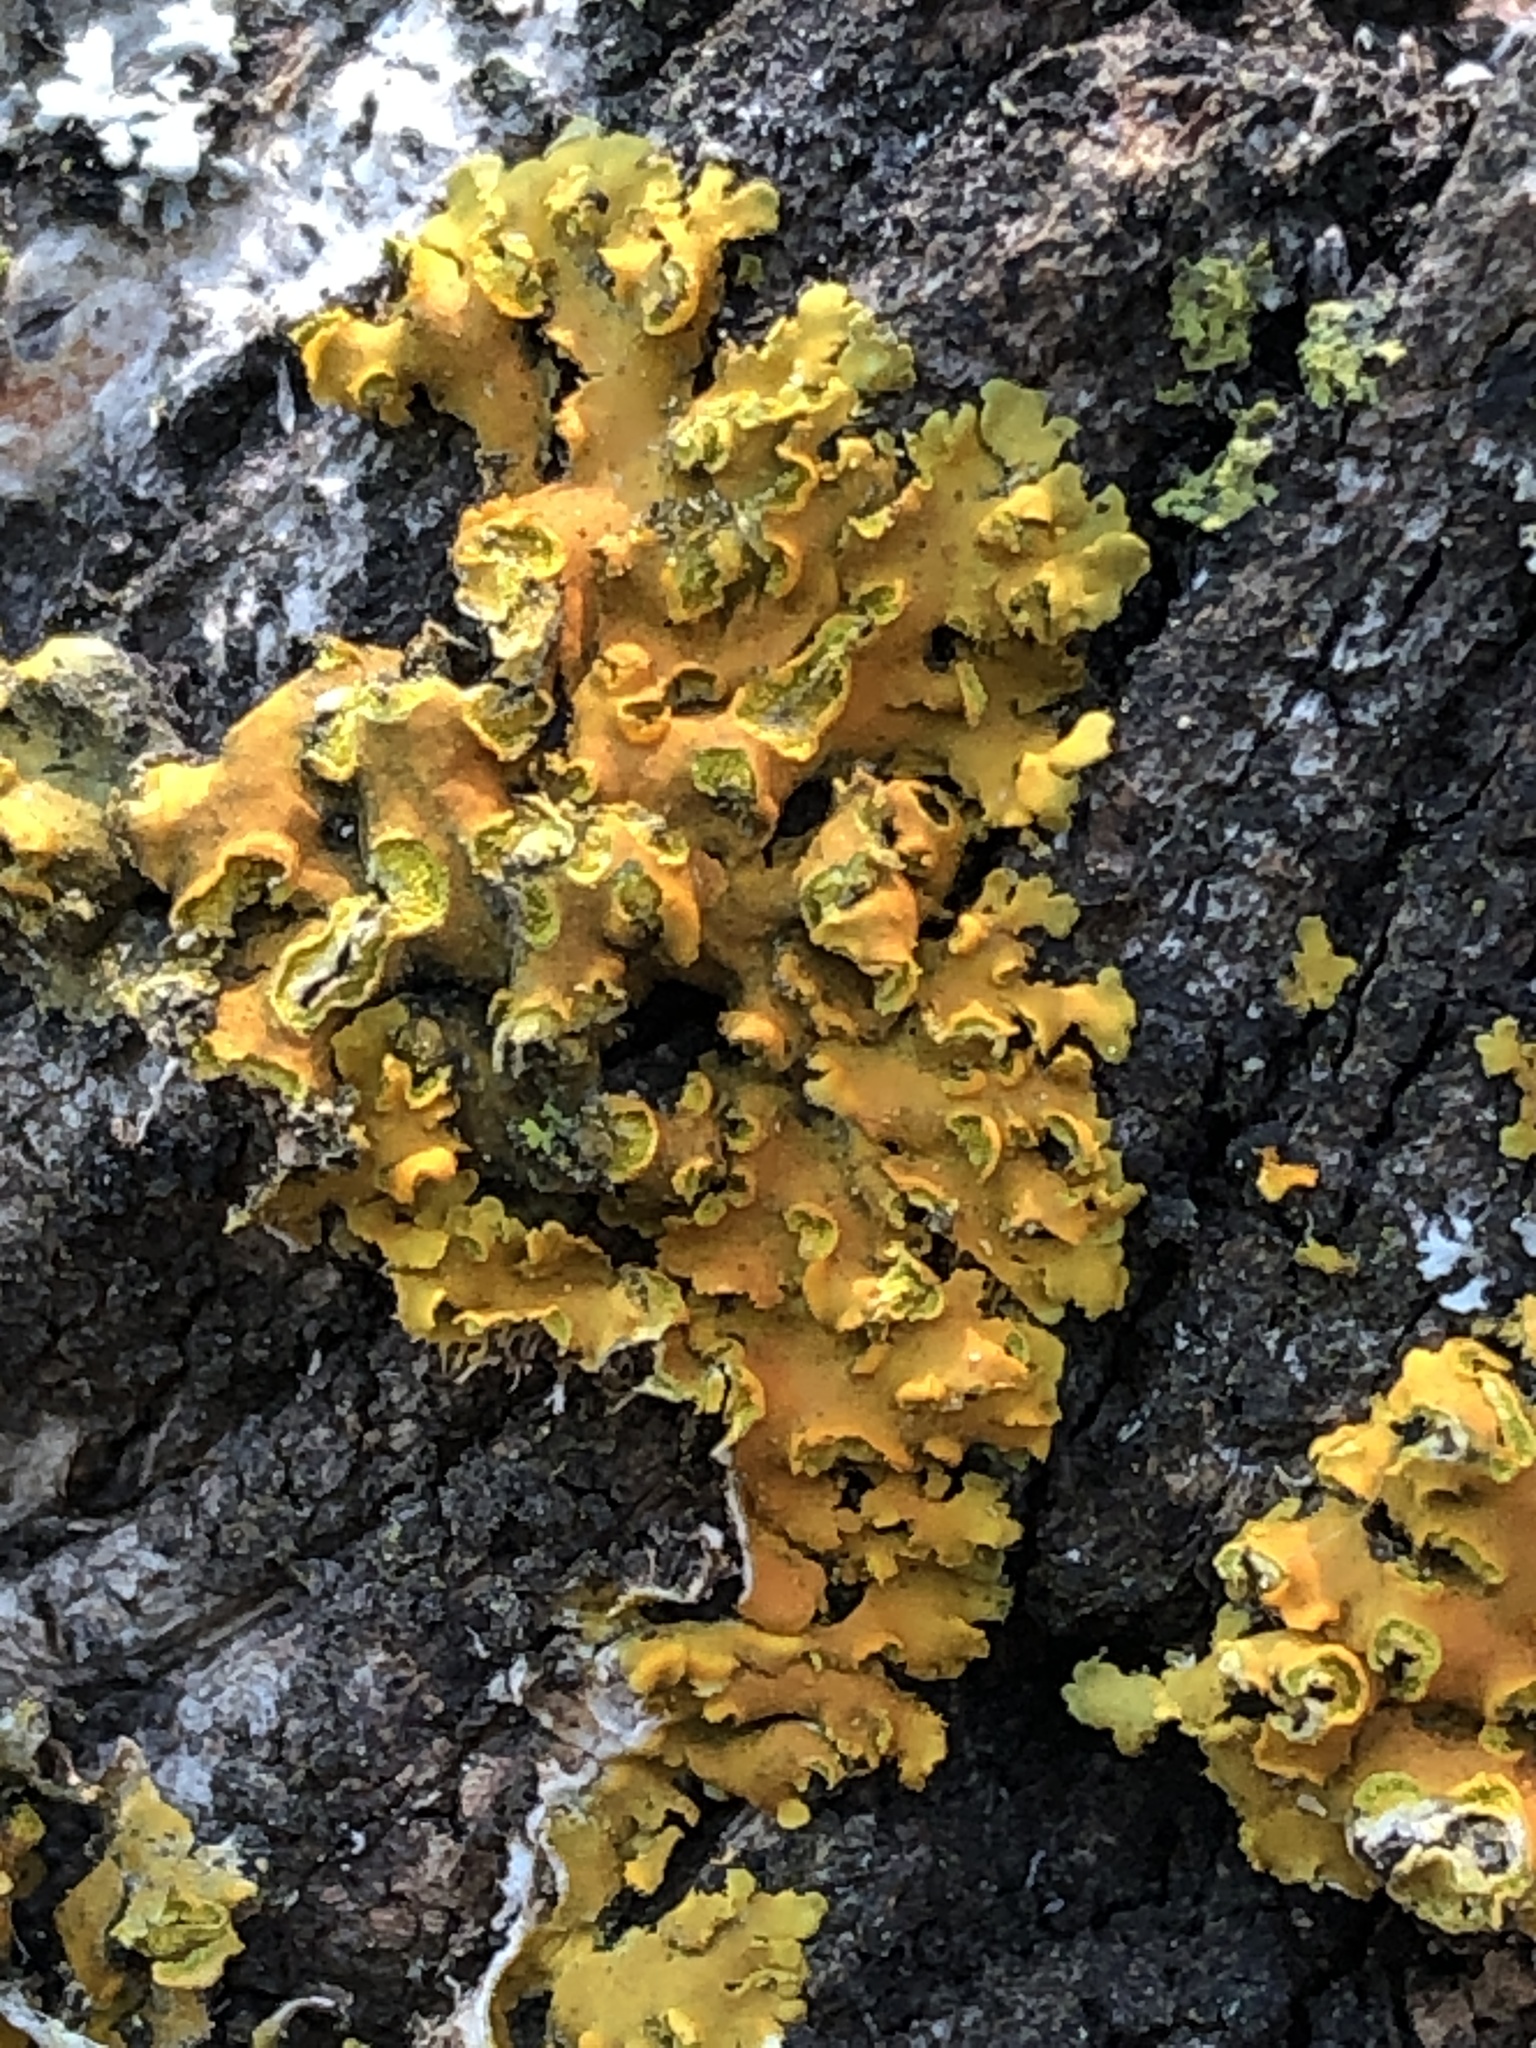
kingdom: Fungi
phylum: Ascomycota
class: Lecanoromycetes
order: Teloschistales
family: Teloschistaceae
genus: Oxneria
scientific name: Oxneria fallax
